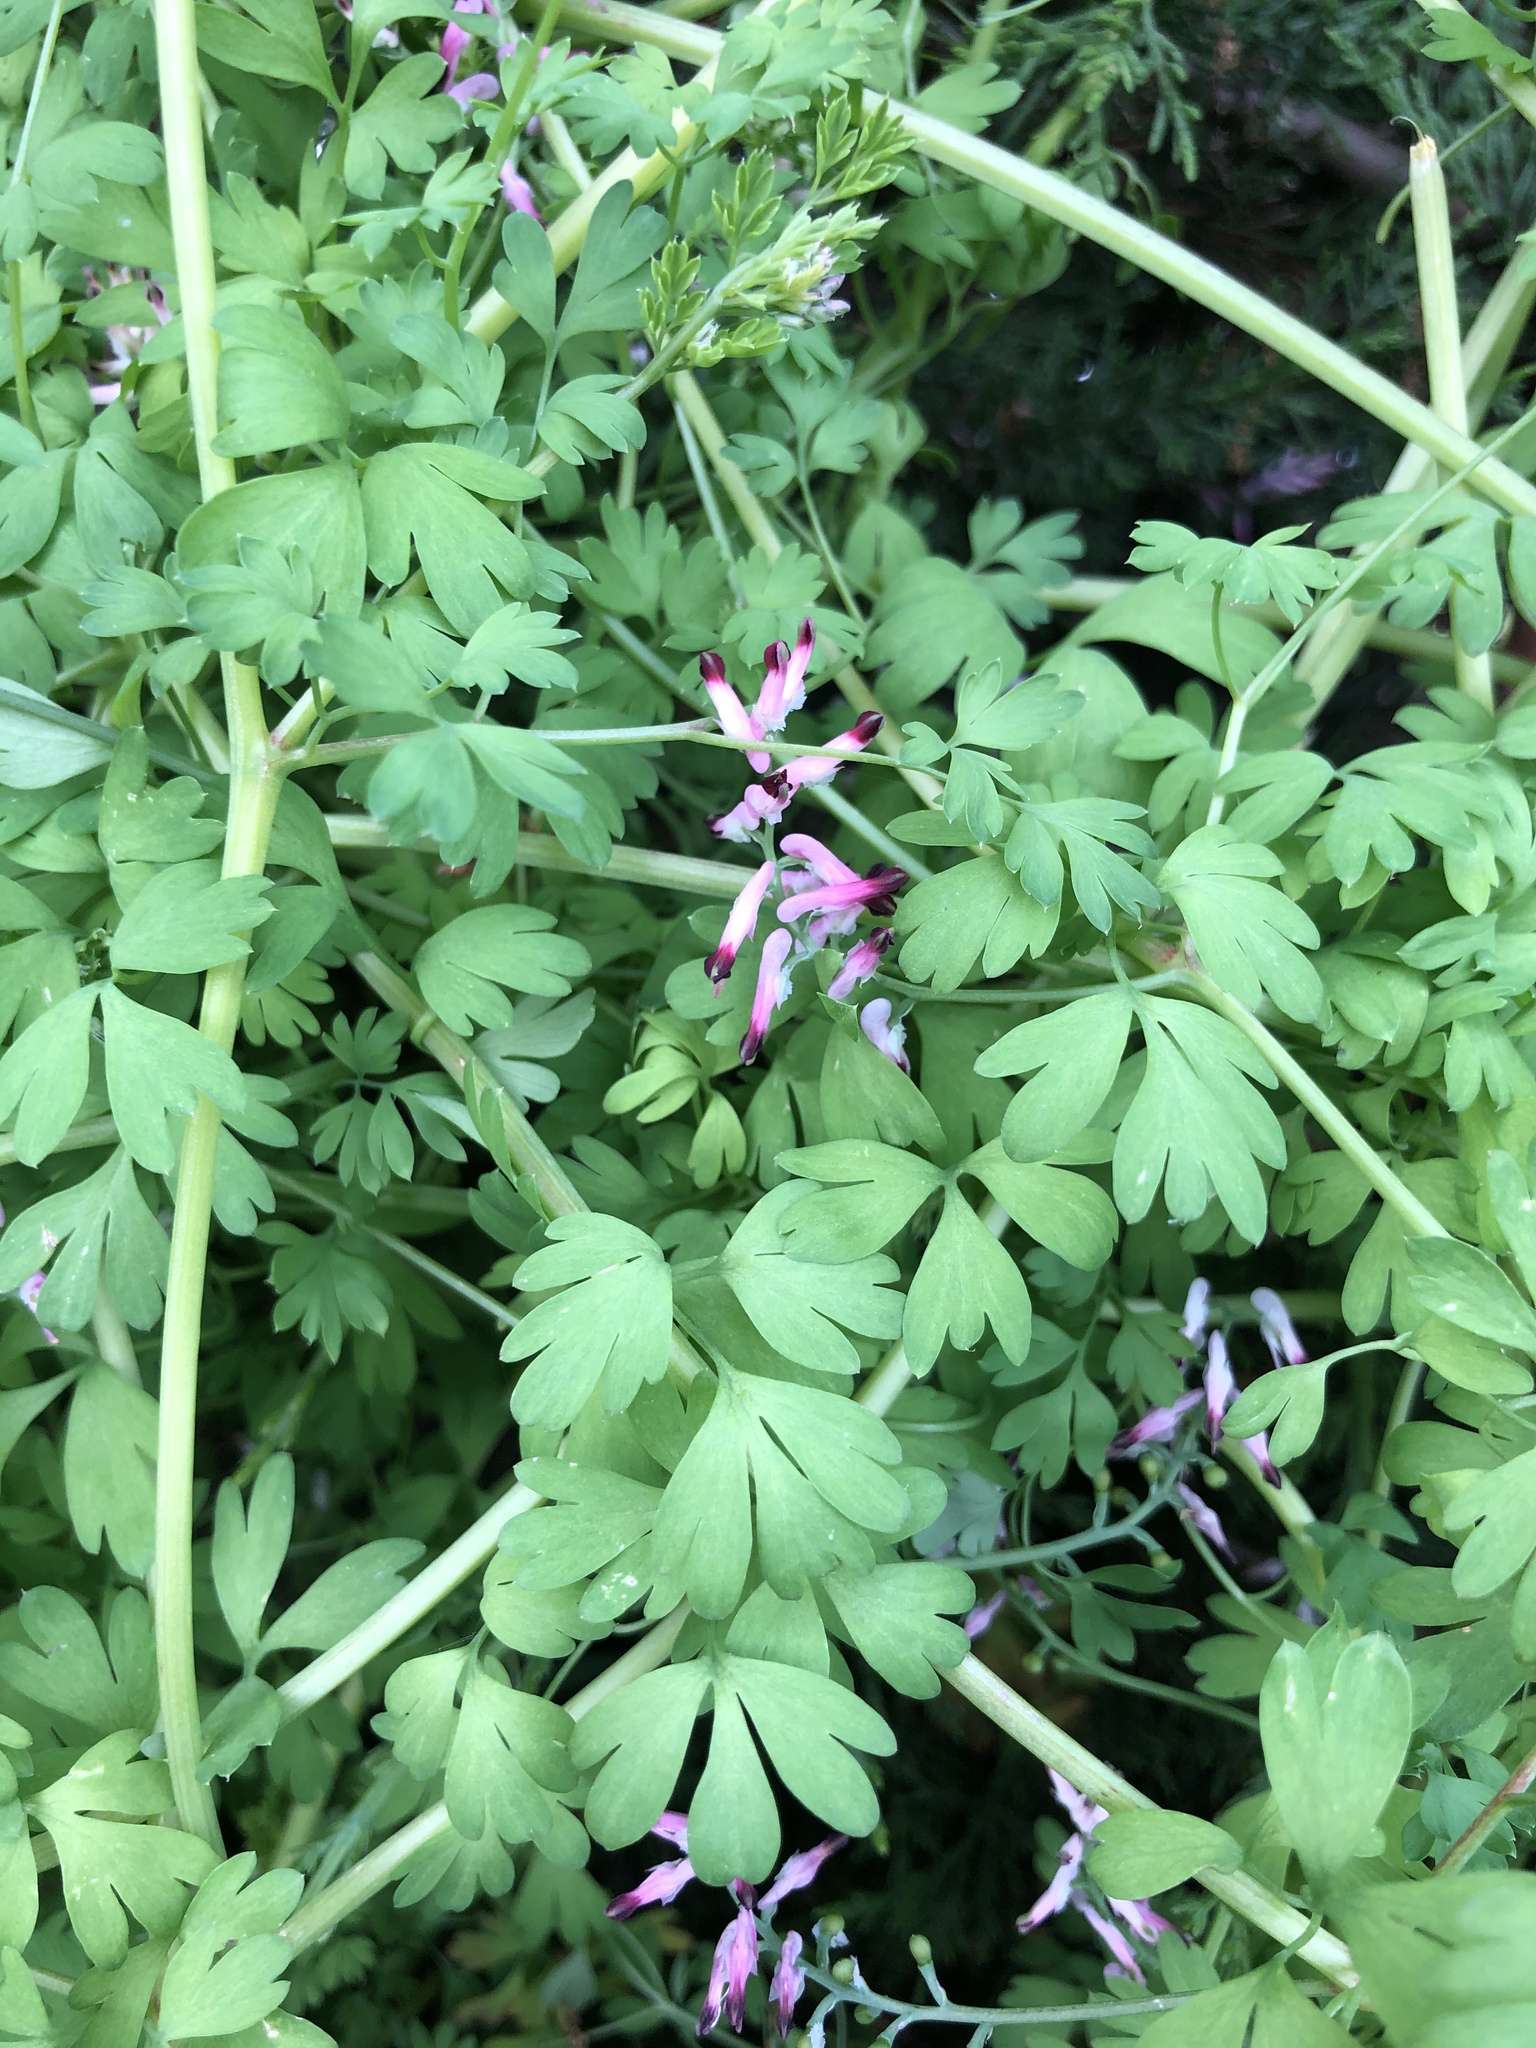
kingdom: Plantae
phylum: Tracheophyta
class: Magnoliopsida
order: Ranunculales
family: Papaveraceae
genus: Fumaria
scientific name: Fumaria muralis
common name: Common ramping-fumitory
